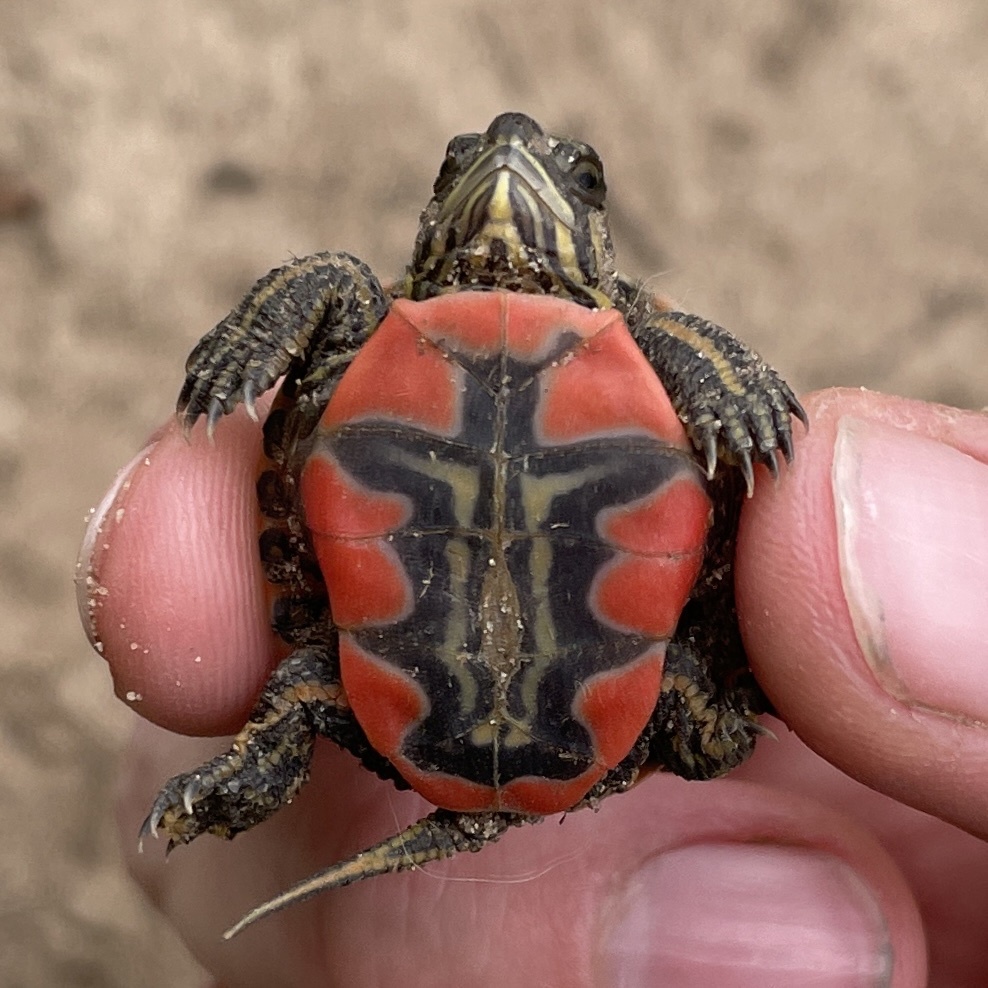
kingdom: Animalia
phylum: Chordata
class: Testudines
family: Emydidae
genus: Chrysemys
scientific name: Chrysemys picta
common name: Painted turtle
